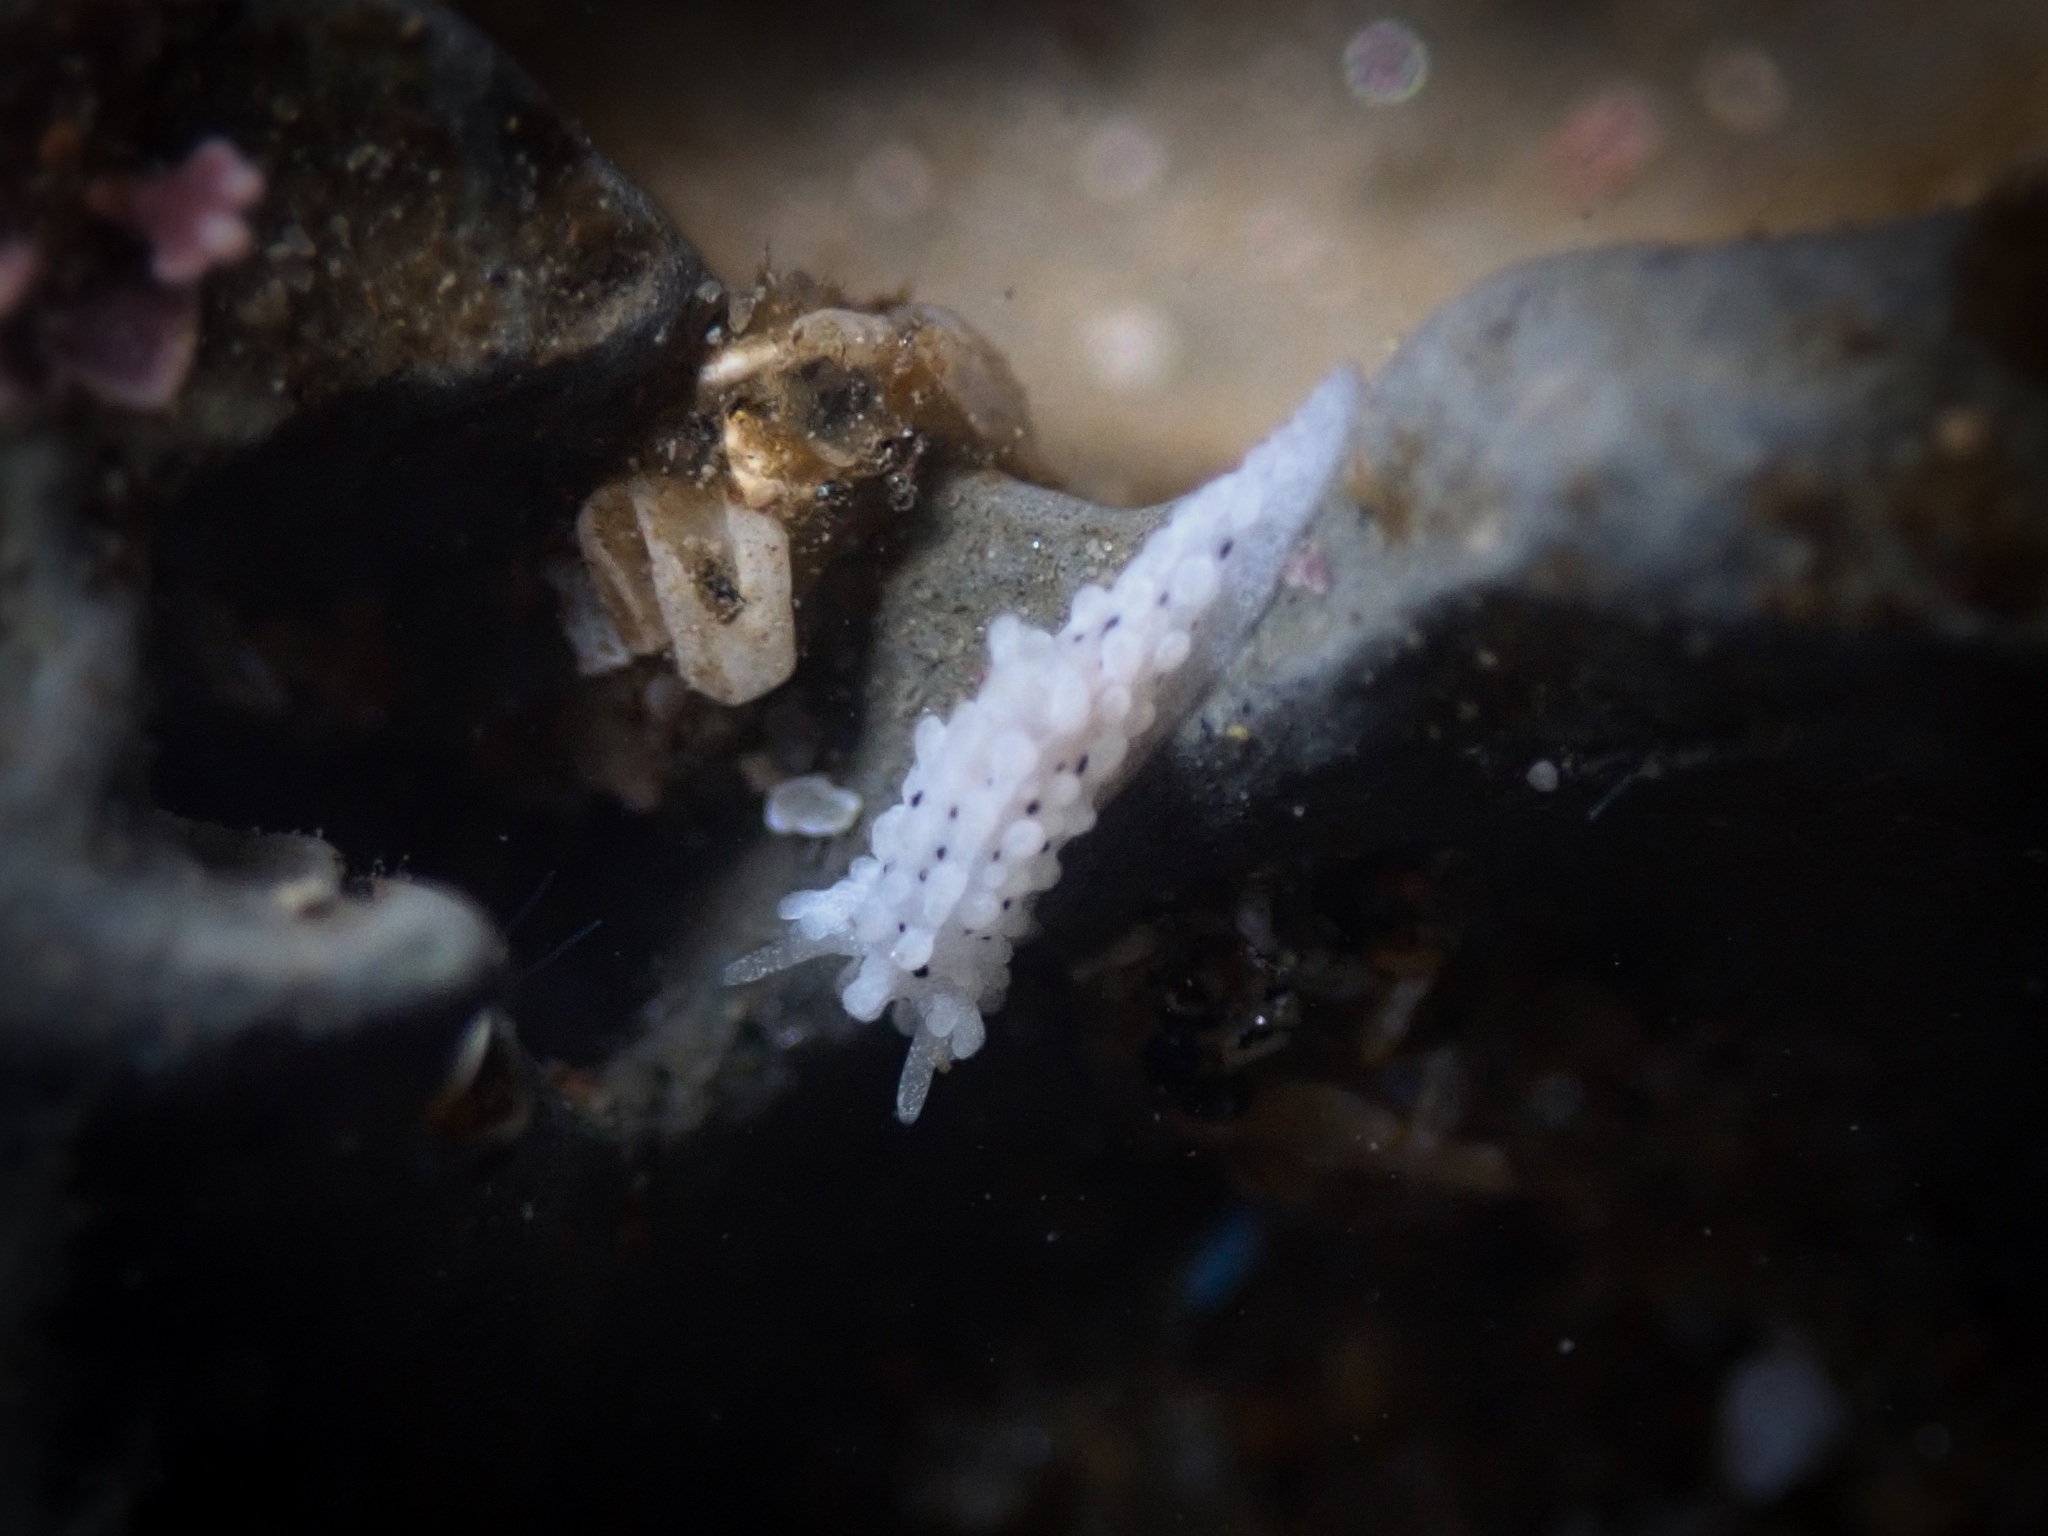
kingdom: Animalia
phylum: Mollusca
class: Gastropoda
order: Nudibranchia
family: Aegiridae
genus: Aegires
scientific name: Aegires albopunctatus
